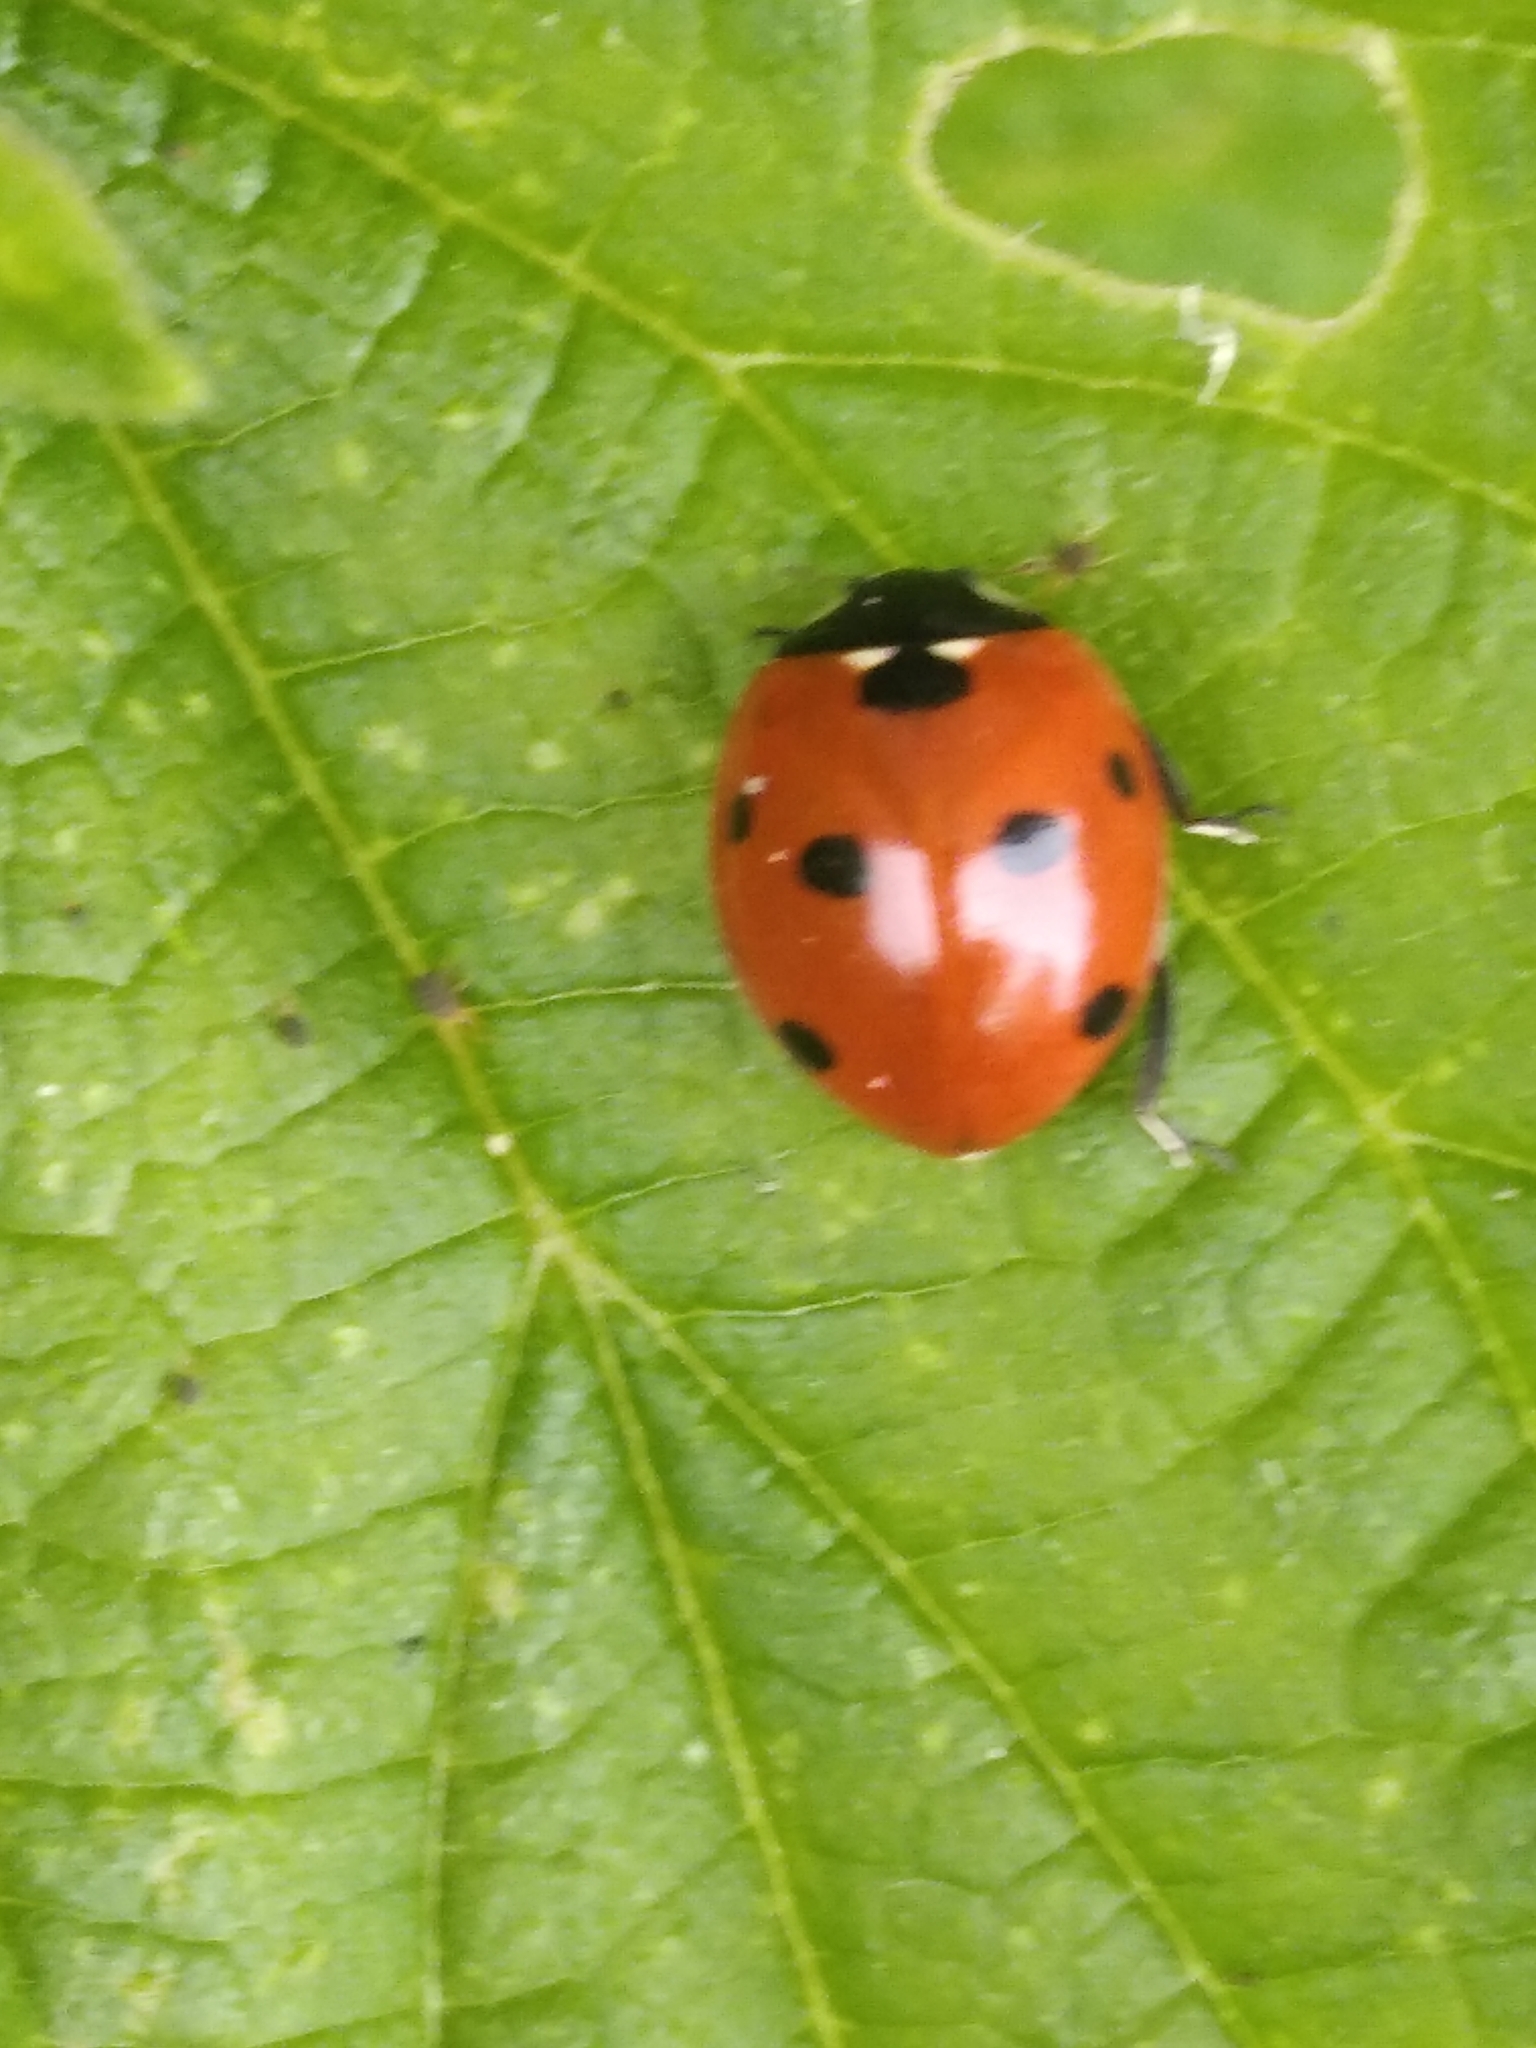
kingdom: Animalia
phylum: Arthropoda
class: Insecta
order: Coleoptera
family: Coccinellidae
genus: Coccinella
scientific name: Coccinella septempunctata
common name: Sevenspotted lady beetle
